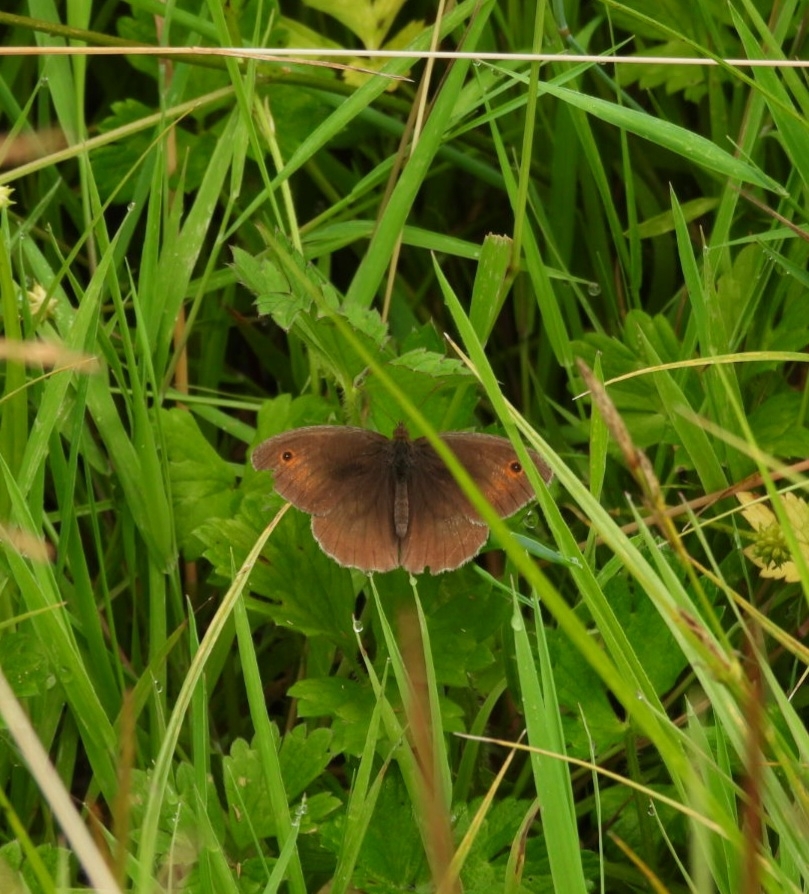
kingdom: Animalia
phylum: Arthropoda
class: Insecta
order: Lepidoptera
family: Nymphalidae
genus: Maniola
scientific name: Maniola jurtina
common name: Meadow brown
